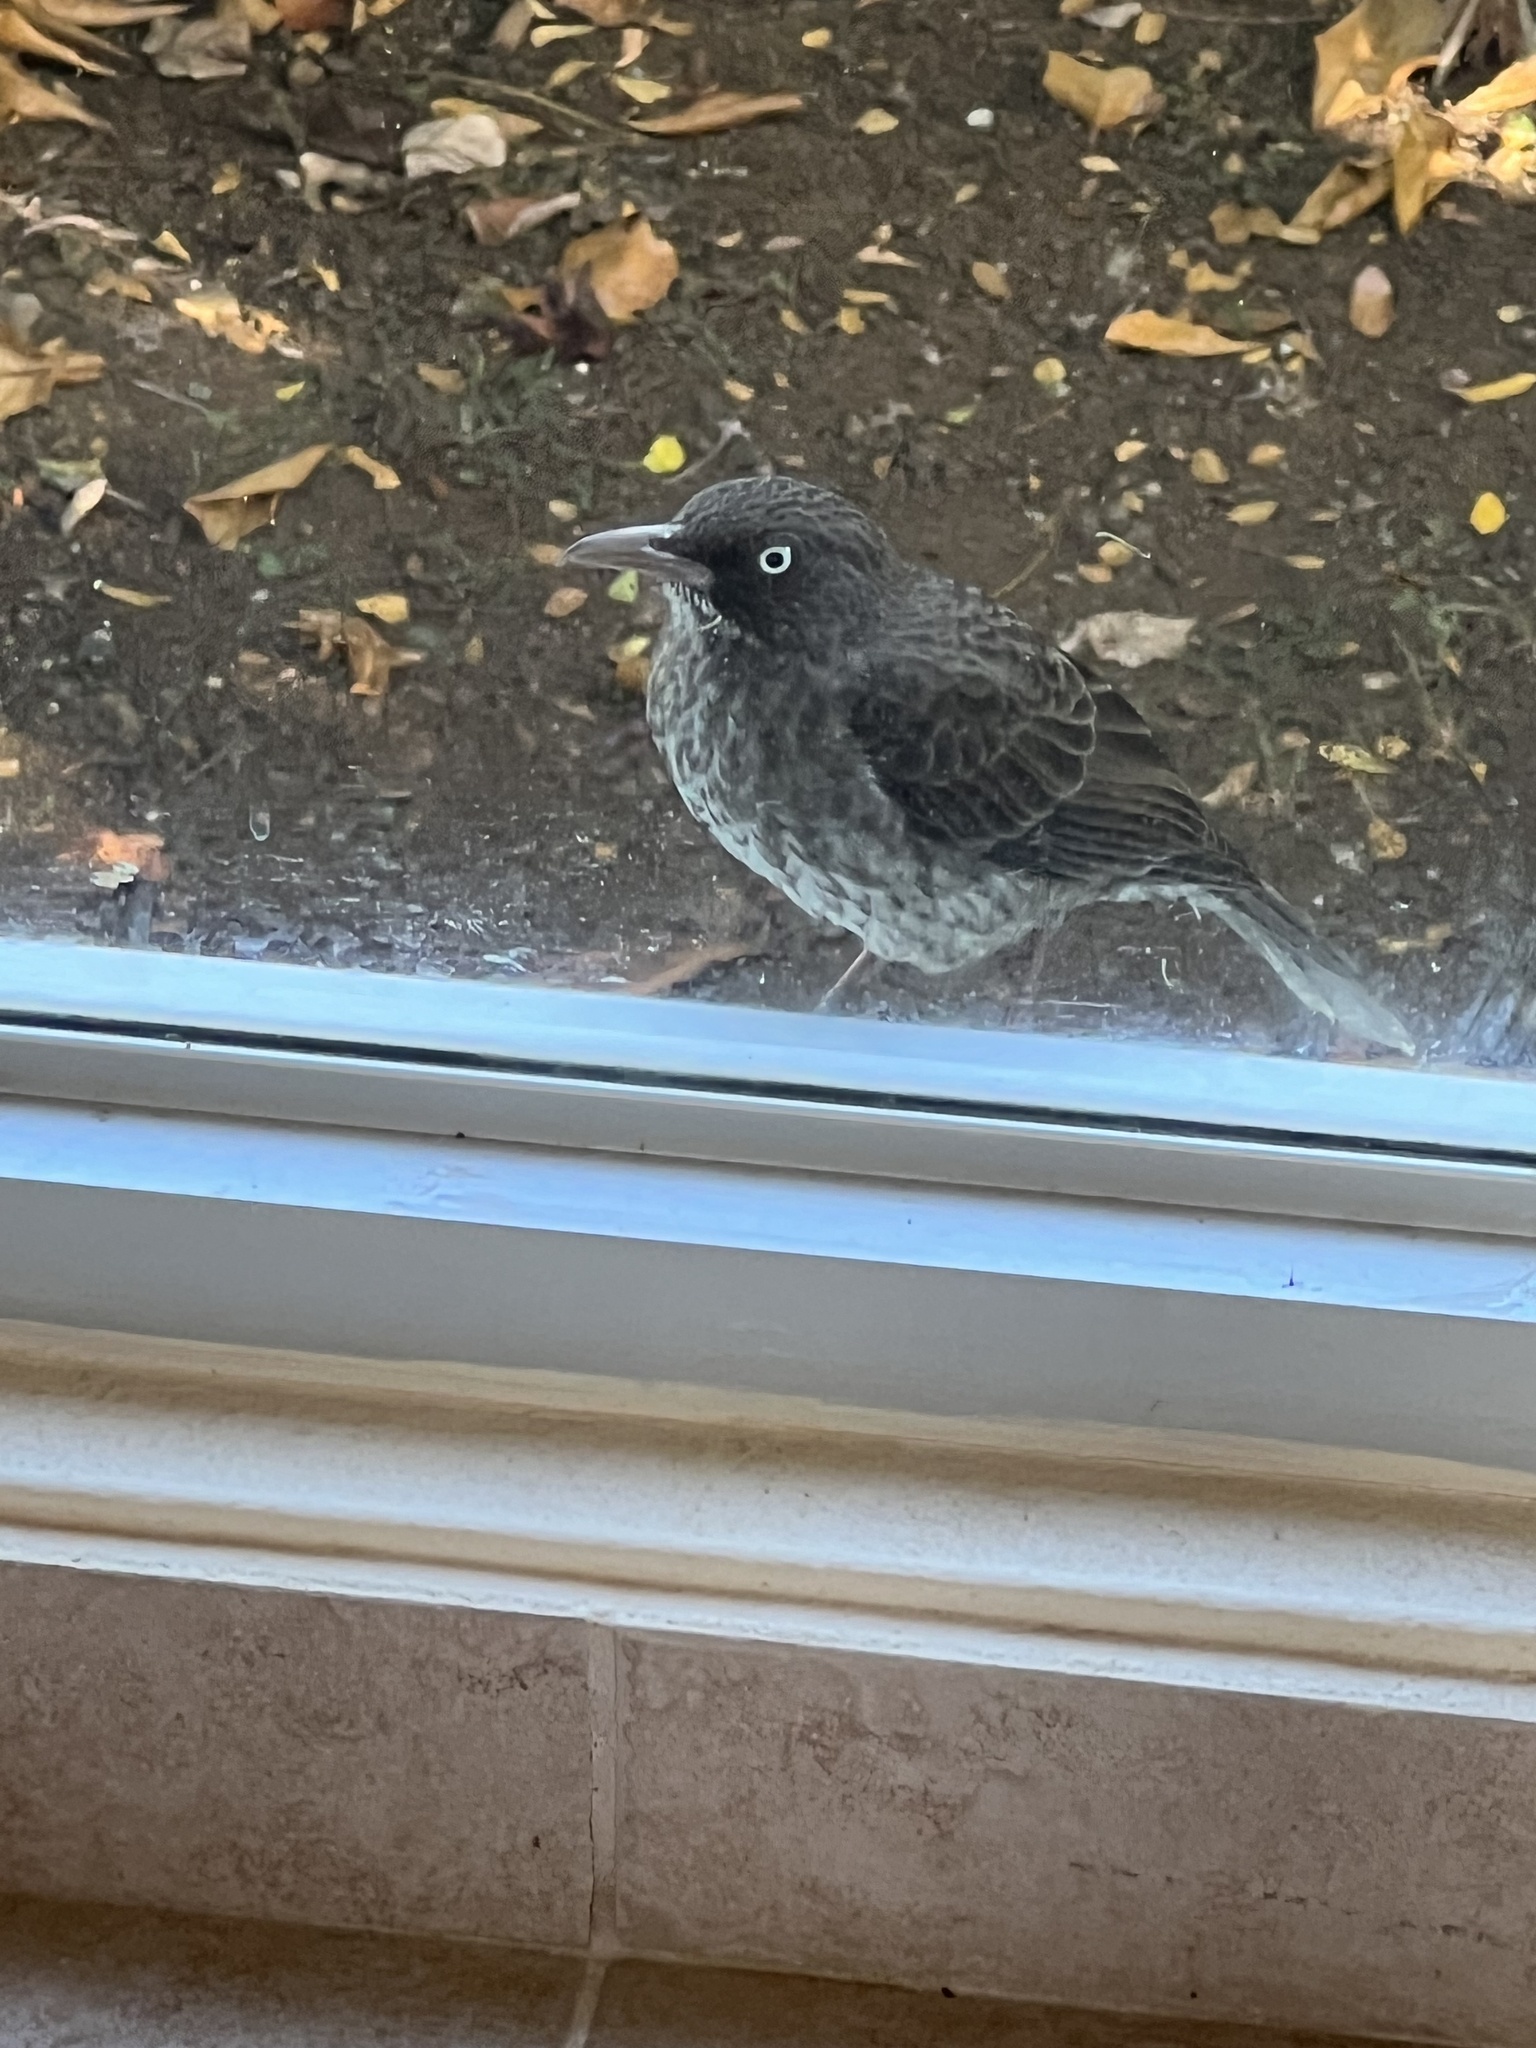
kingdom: Animalia
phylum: Chordata
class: Aves
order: Passeriformes
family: Mimidae
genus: Margarops
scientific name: Margarops fuscatus
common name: Pearly-eyed thrasher
